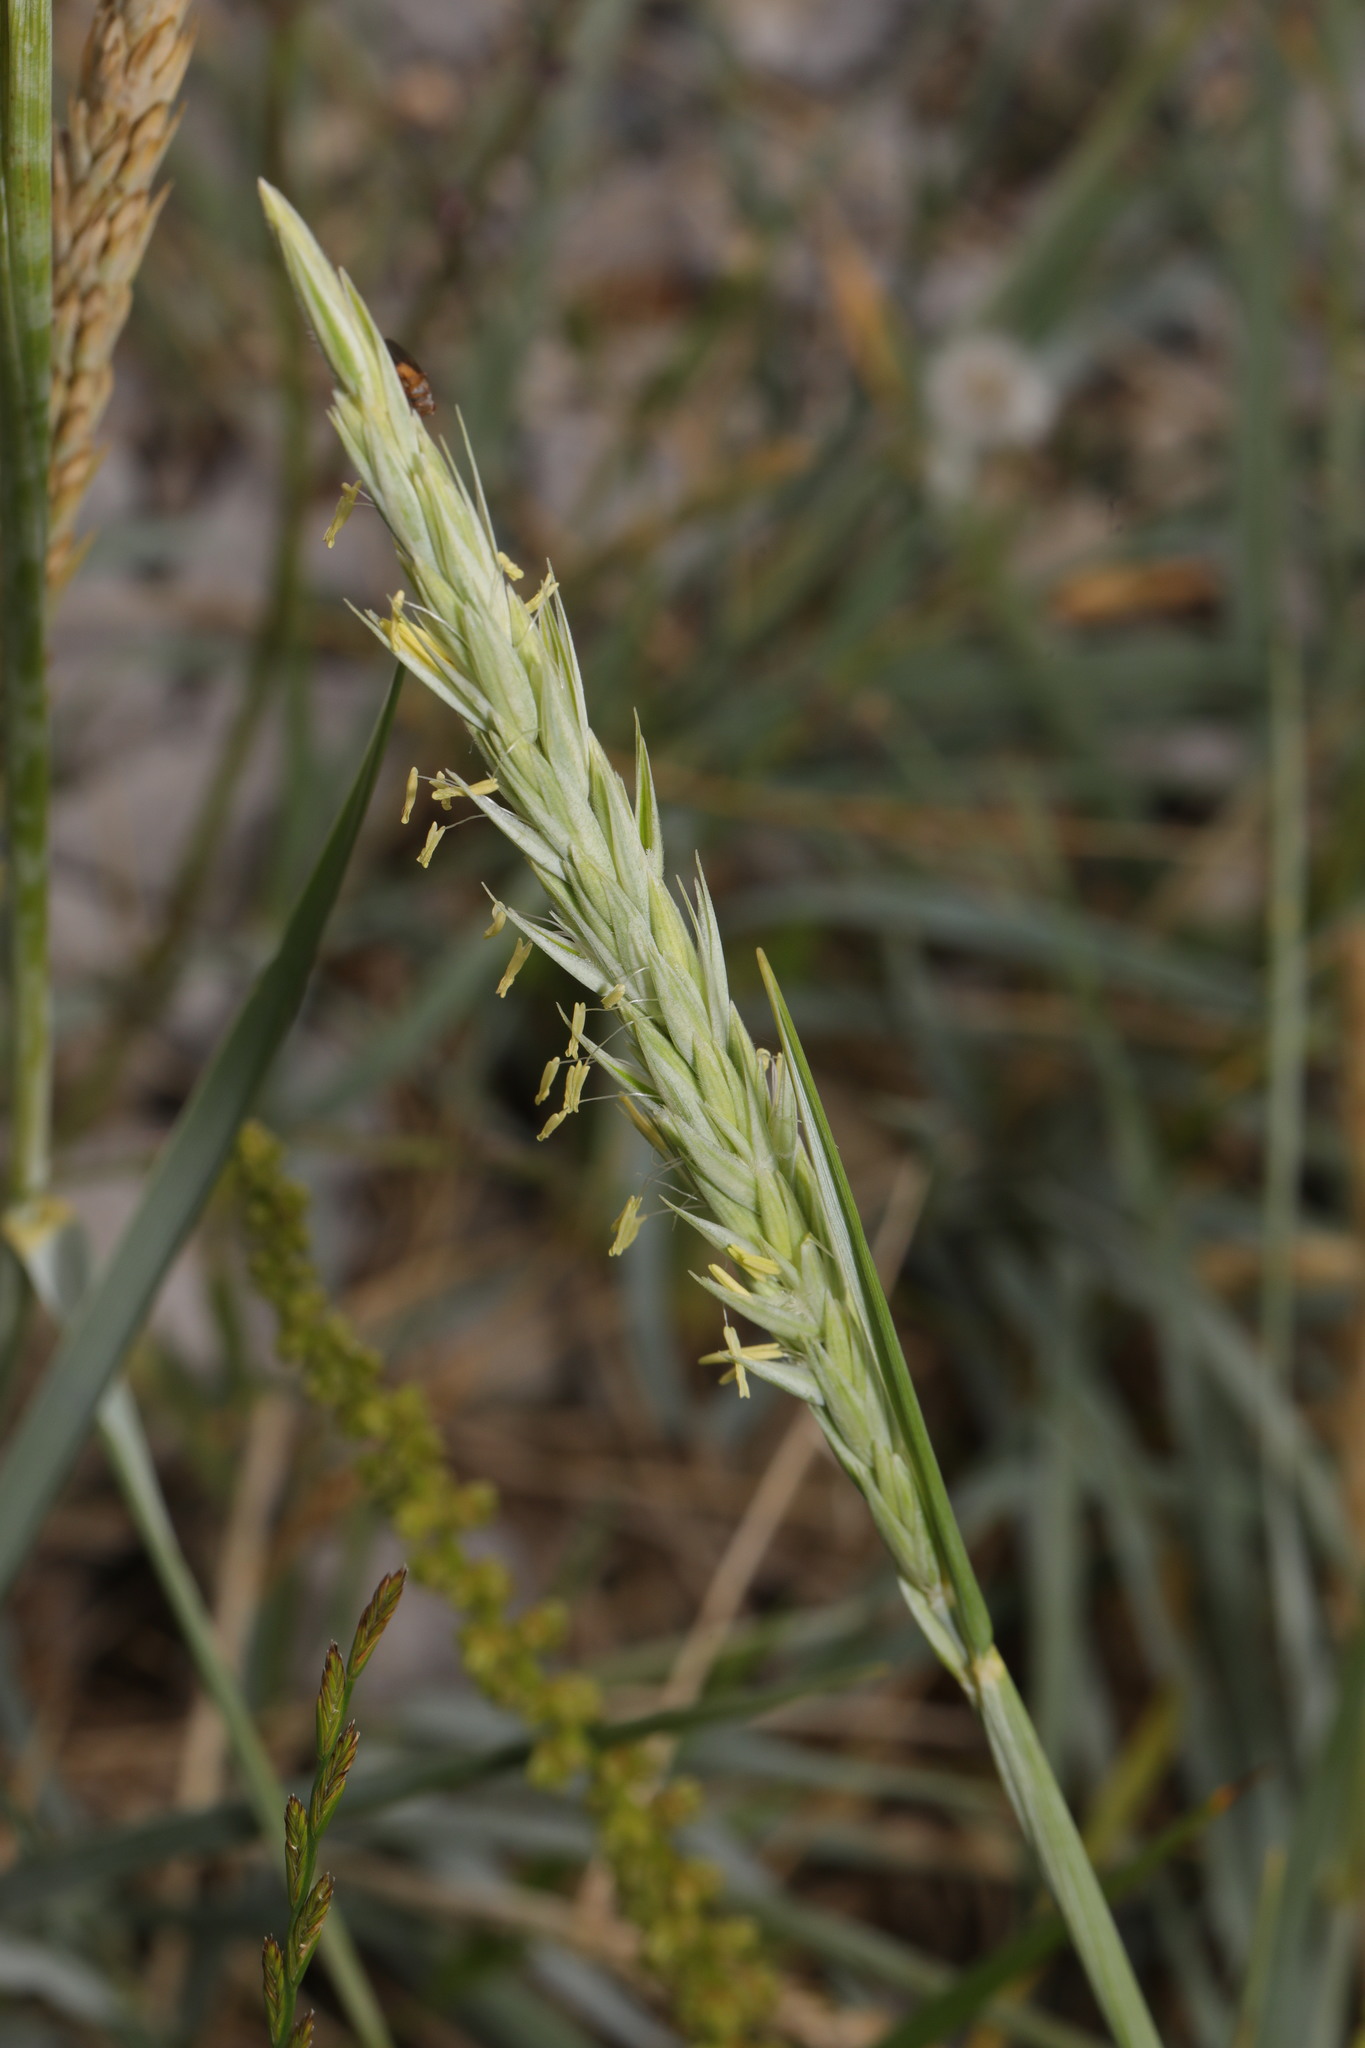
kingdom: Plantae
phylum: Tracheophyta
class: Liliopsida
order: Poales
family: Poaceae
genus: Leymus
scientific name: Leymus arenarius
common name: Lyme-grass
